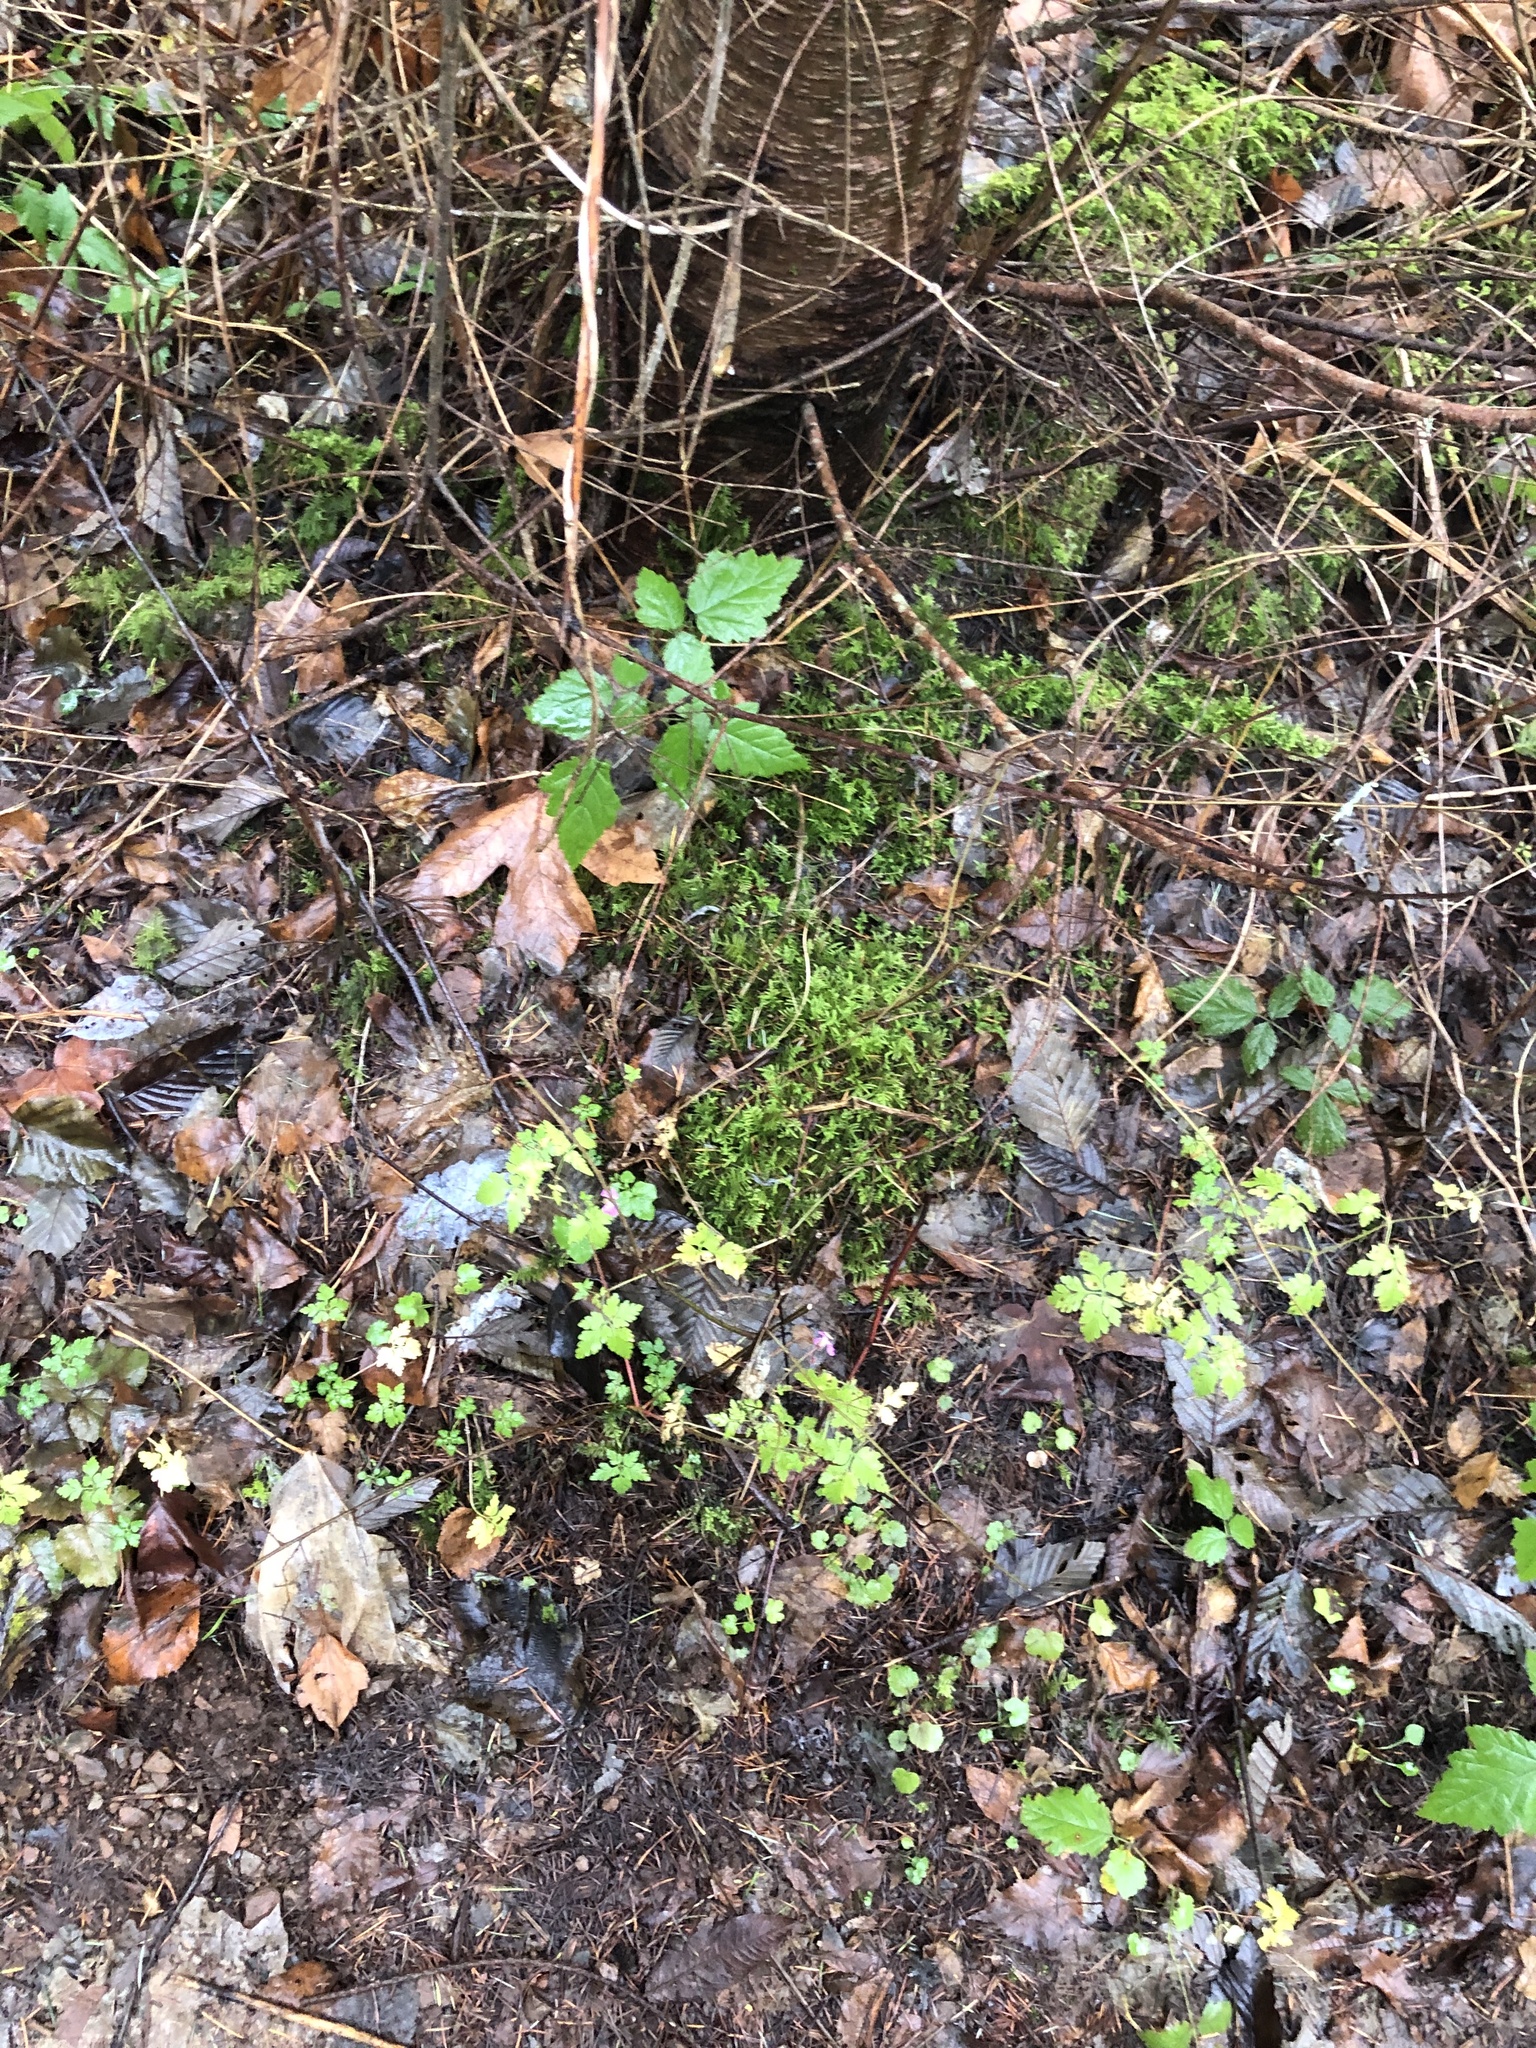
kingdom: Plantae
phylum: Tracheophyta
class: Magnoliopsida
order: Geraniales
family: Geraniaceae
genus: Geranium
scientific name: Geranium robertianum
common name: Herb-robert
